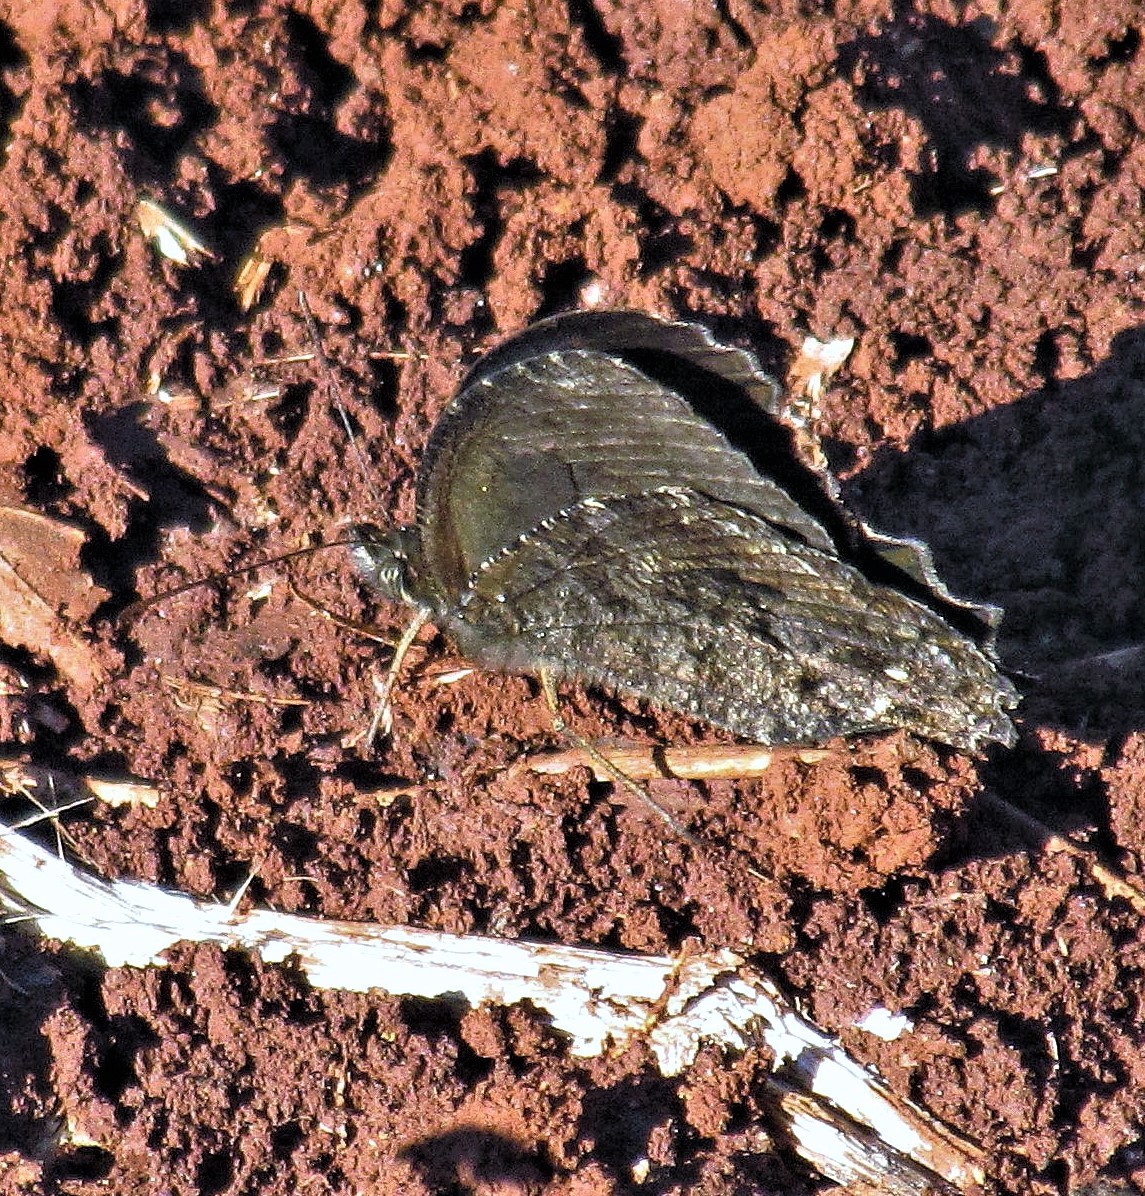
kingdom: Animalia
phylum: Arthropoda
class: Insecta
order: Lepidoptera
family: Nymphalidae
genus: Praepedaliodes
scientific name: Praepedaliodes phanias
